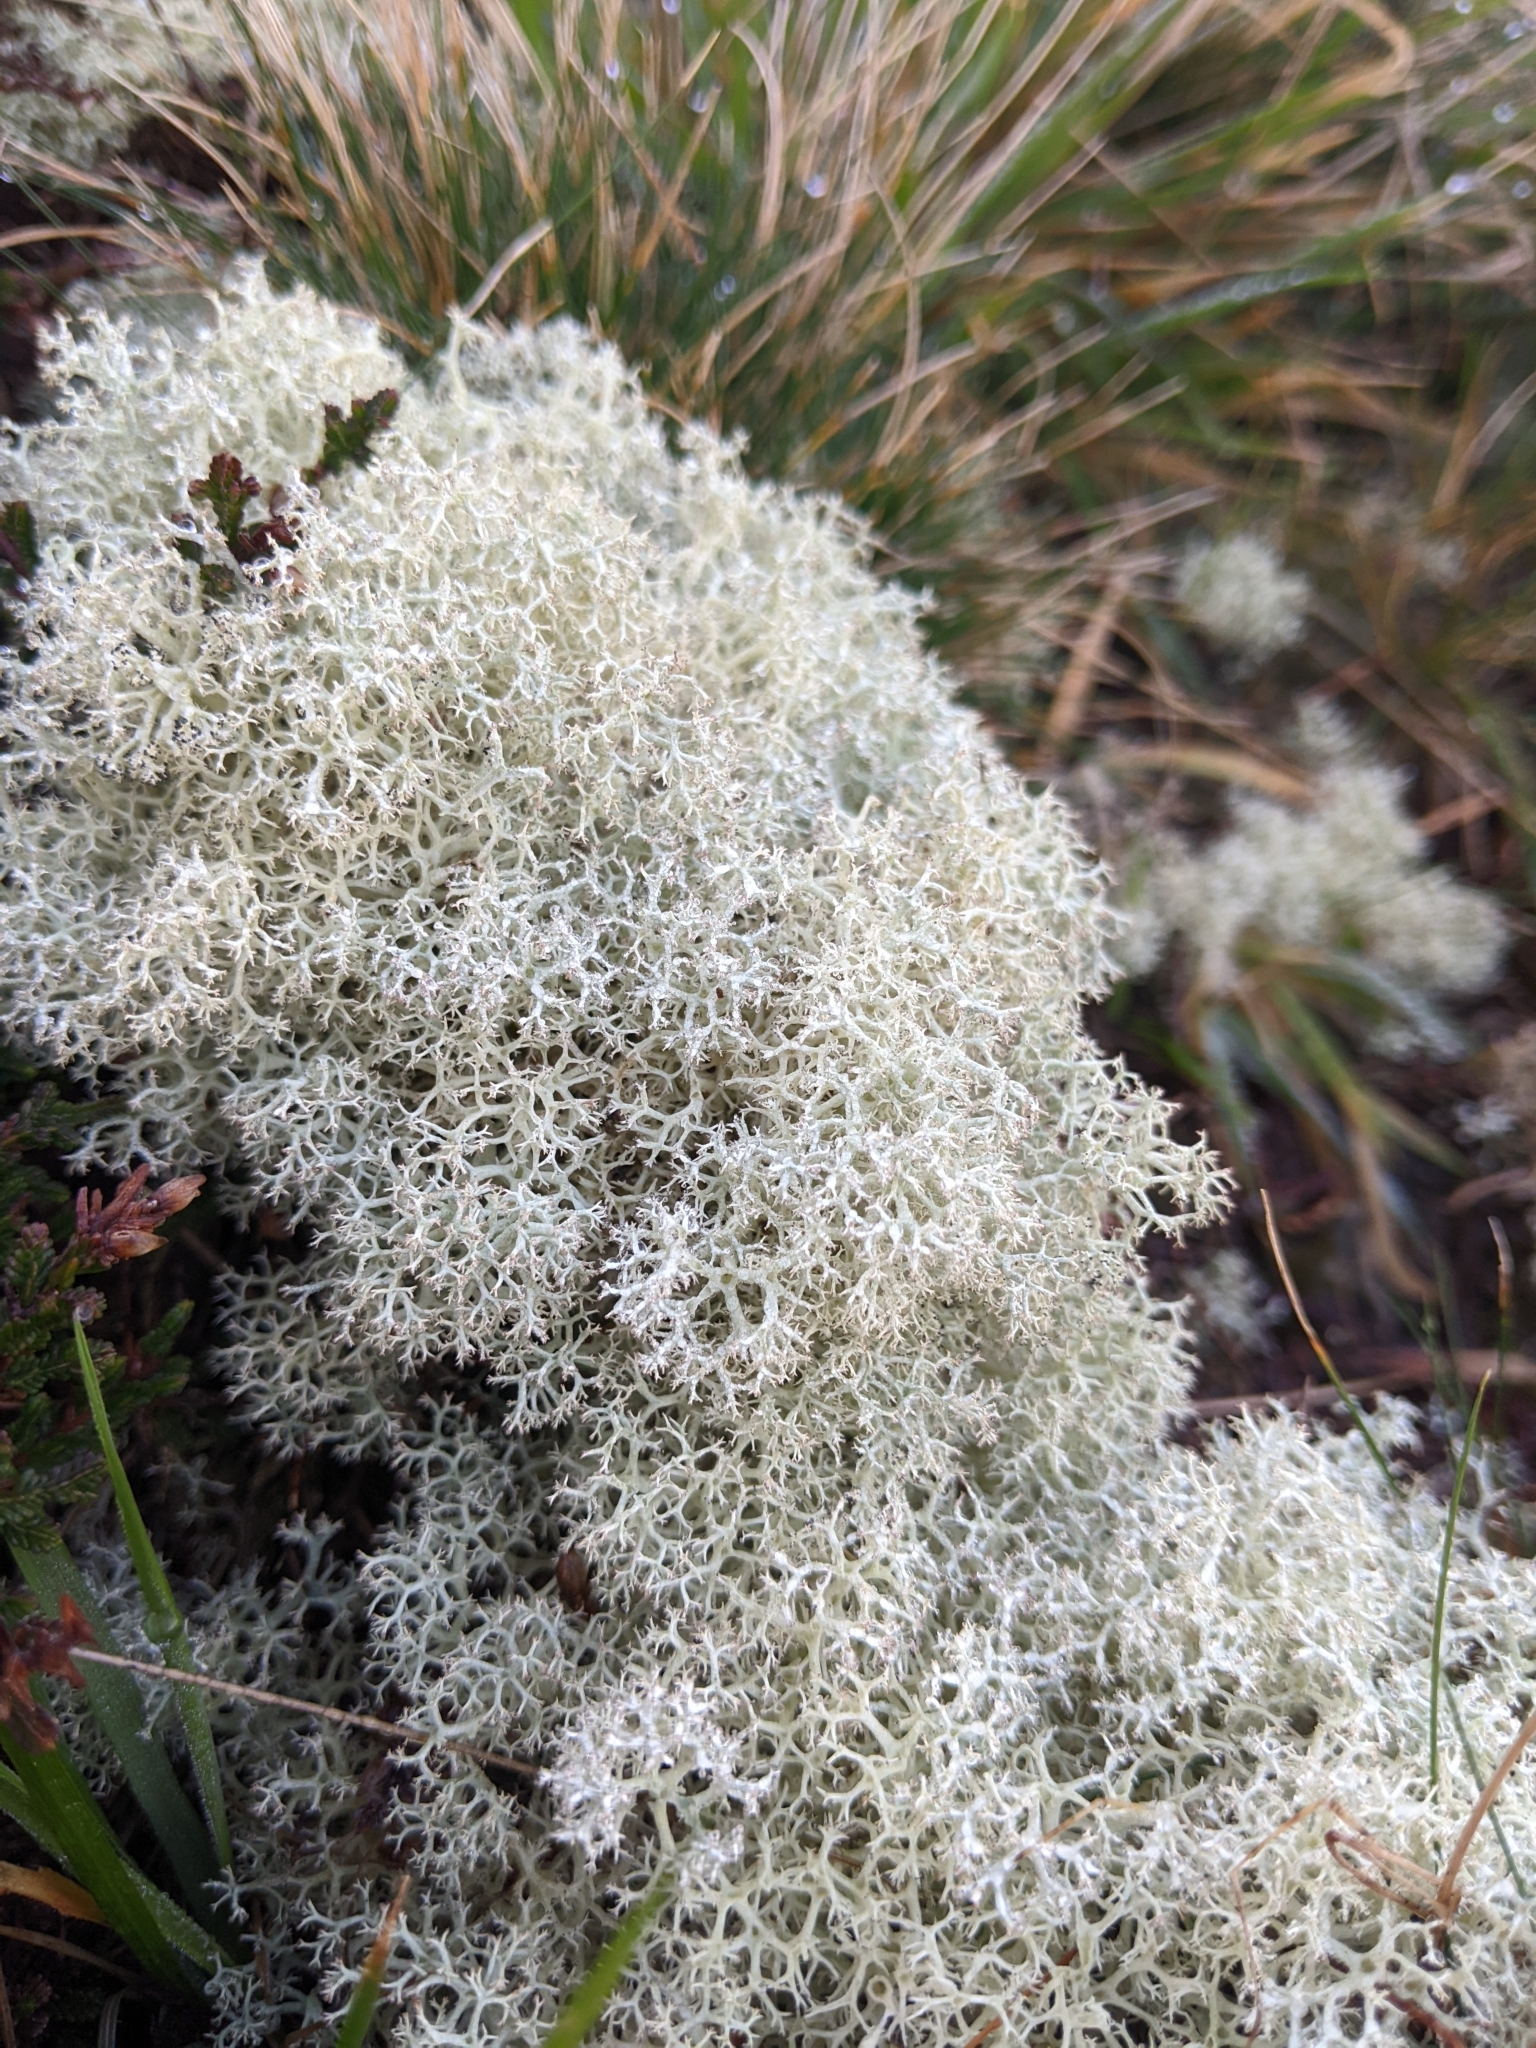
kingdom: Fungi
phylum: Ascomycota
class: Lecanoromycetes
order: Lecanorales
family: Cladoniaceae
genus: Cladonia
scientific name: Cladonia portentosa
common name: Reindeer lichen
